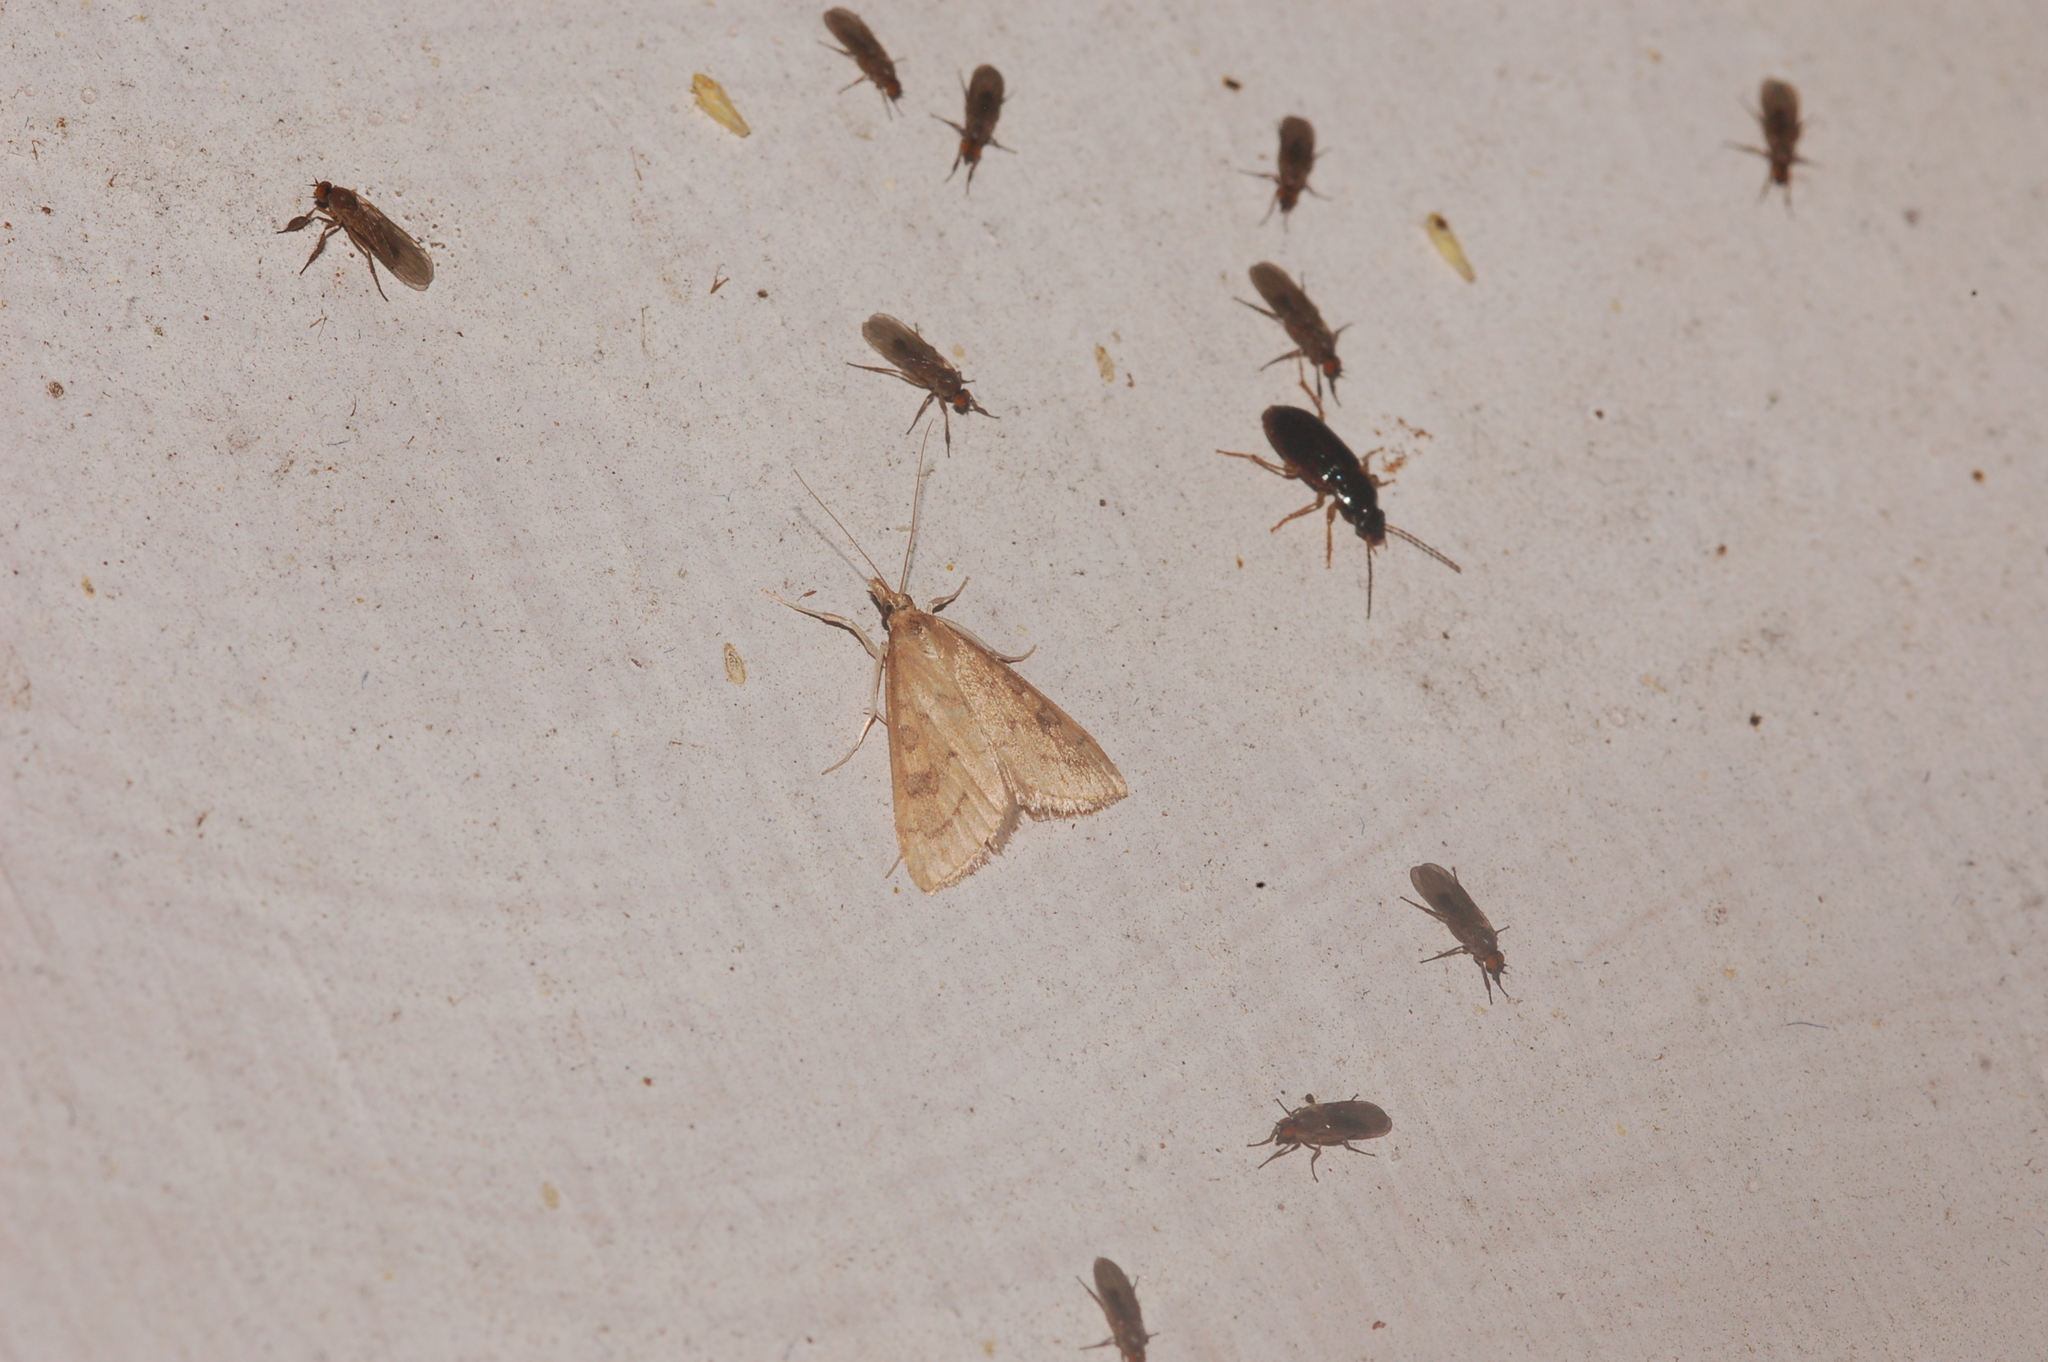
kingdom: Animalia
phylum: Arthropoda
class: Insecta
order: Lepidoptera
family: Crambidae
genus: Udea
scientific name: Udea rubigalis
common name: Celery leaftier moth
